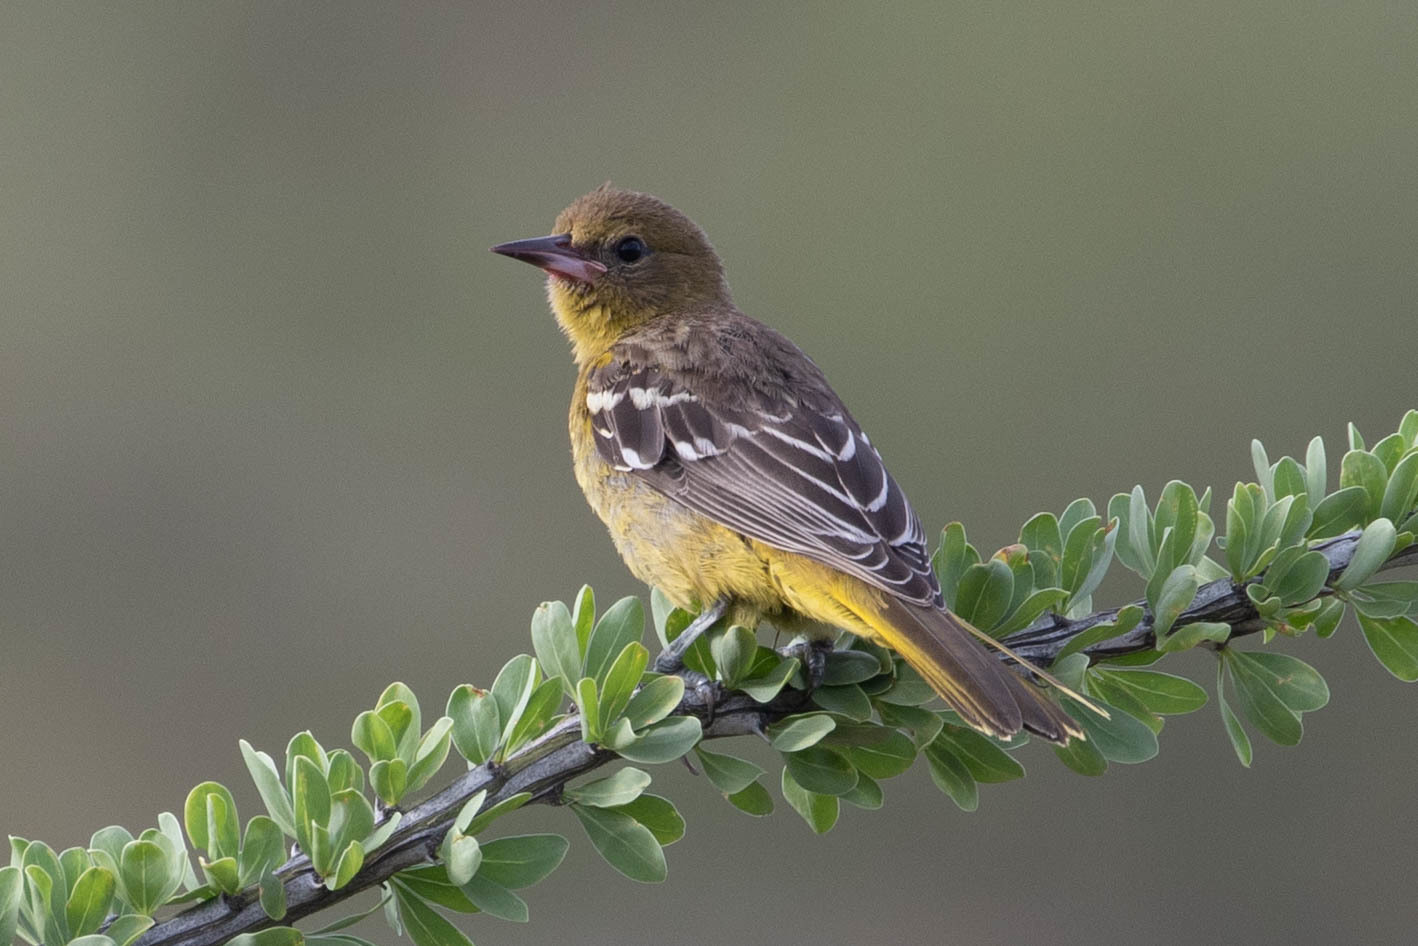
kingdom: Animalia
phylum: Chordata
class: Aves
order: Passeriformes
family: Icteridae
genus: Icterus
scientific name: Icterus parisorum
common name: Scott's oriole
